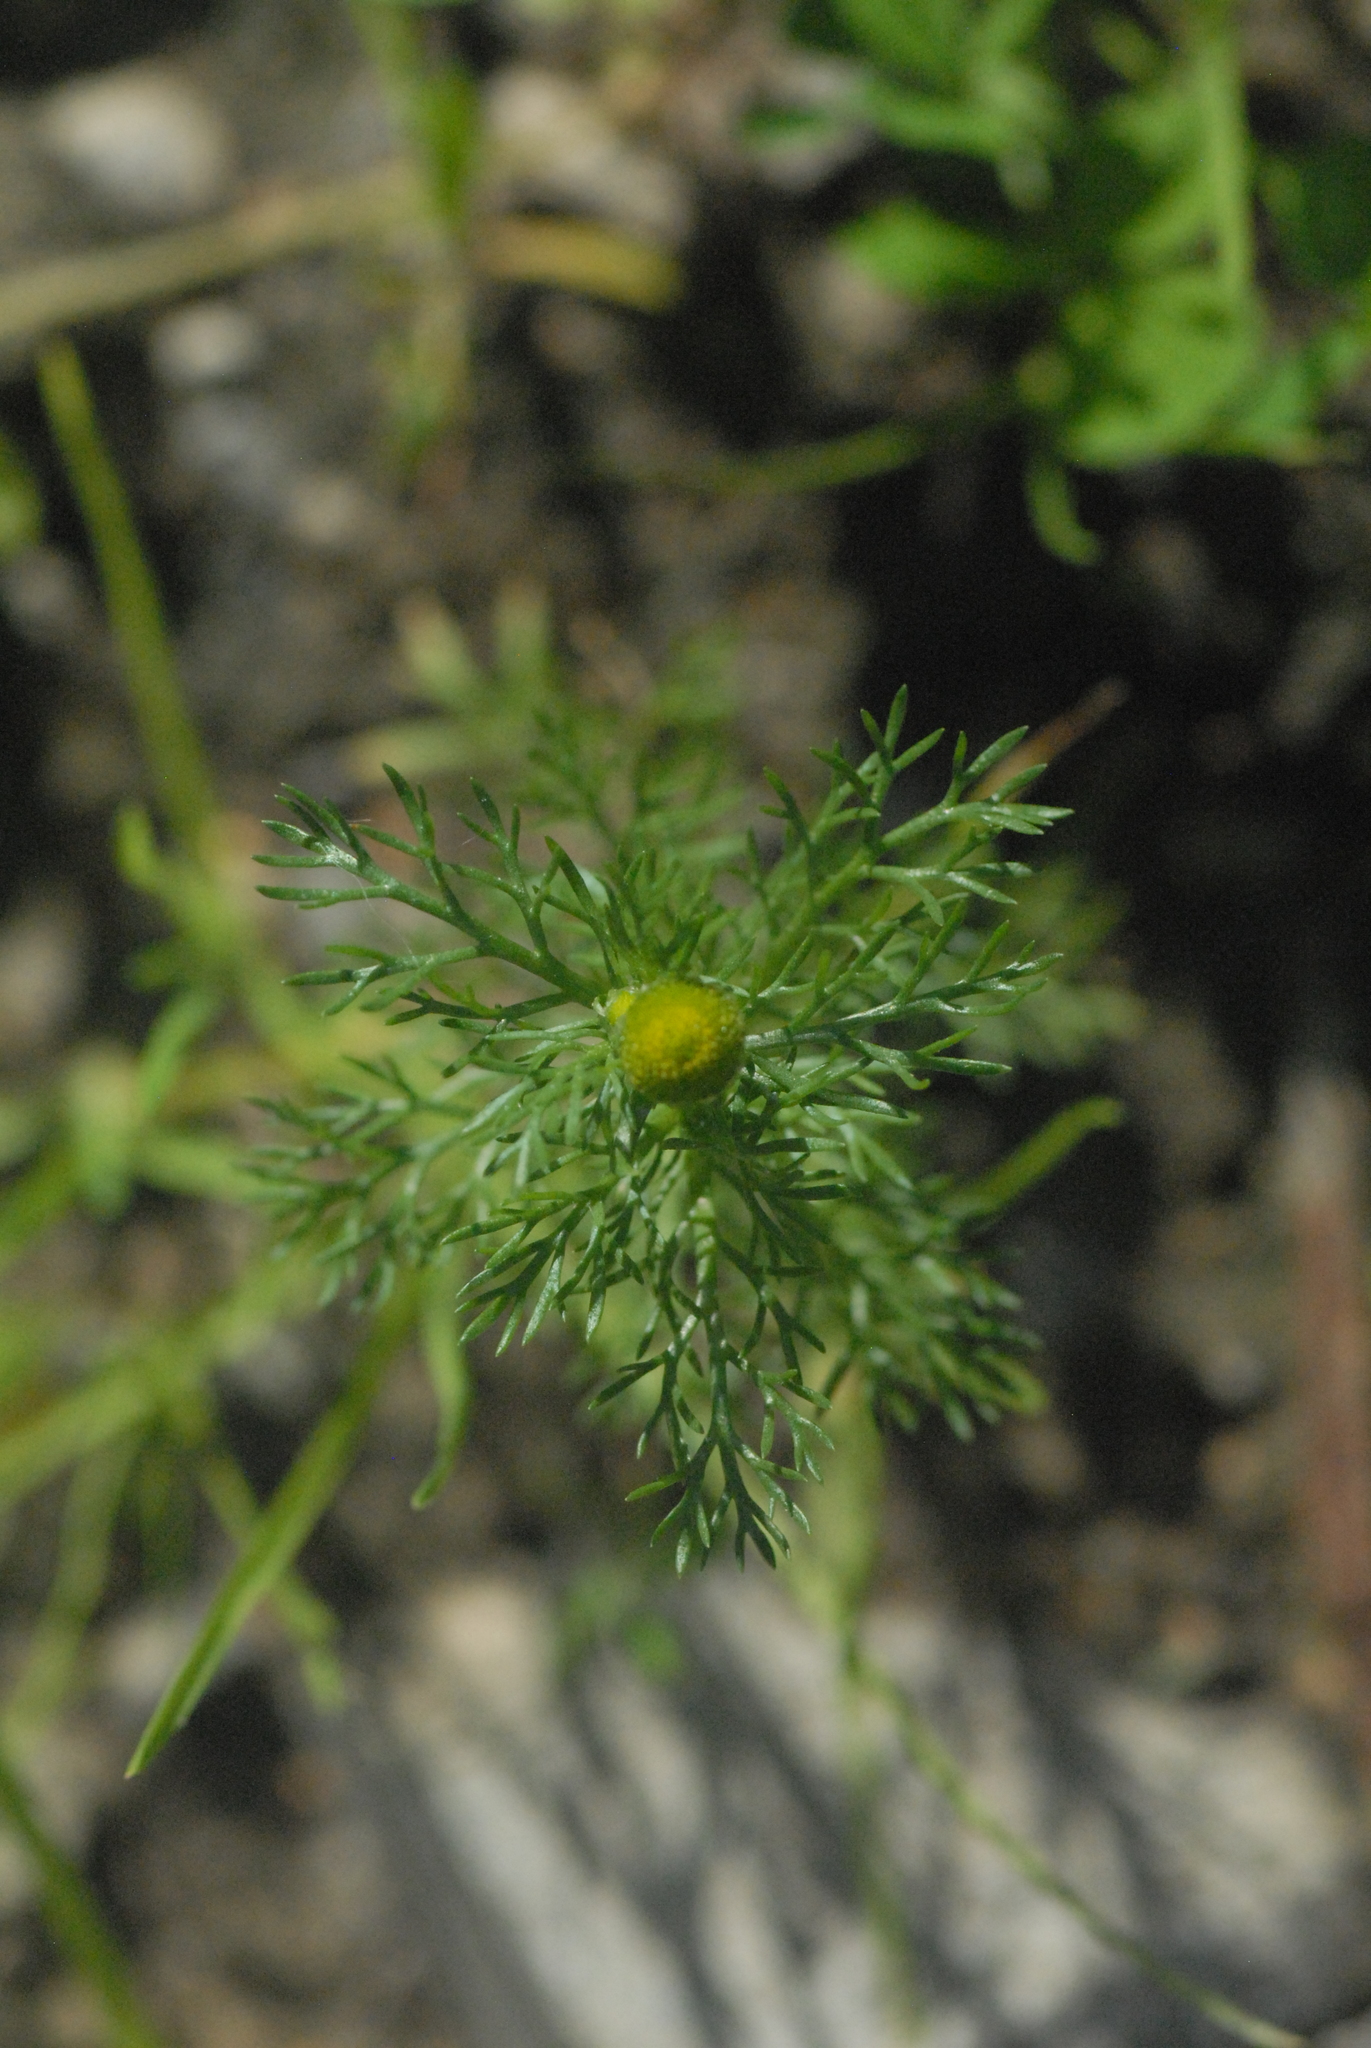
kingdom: Plantae
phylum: Tracheophyta
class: Magnoliopsida
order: Asterales
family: Asteraceae
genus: Matricaria
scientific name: Matricaria discoidea
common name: Disc mayweed
